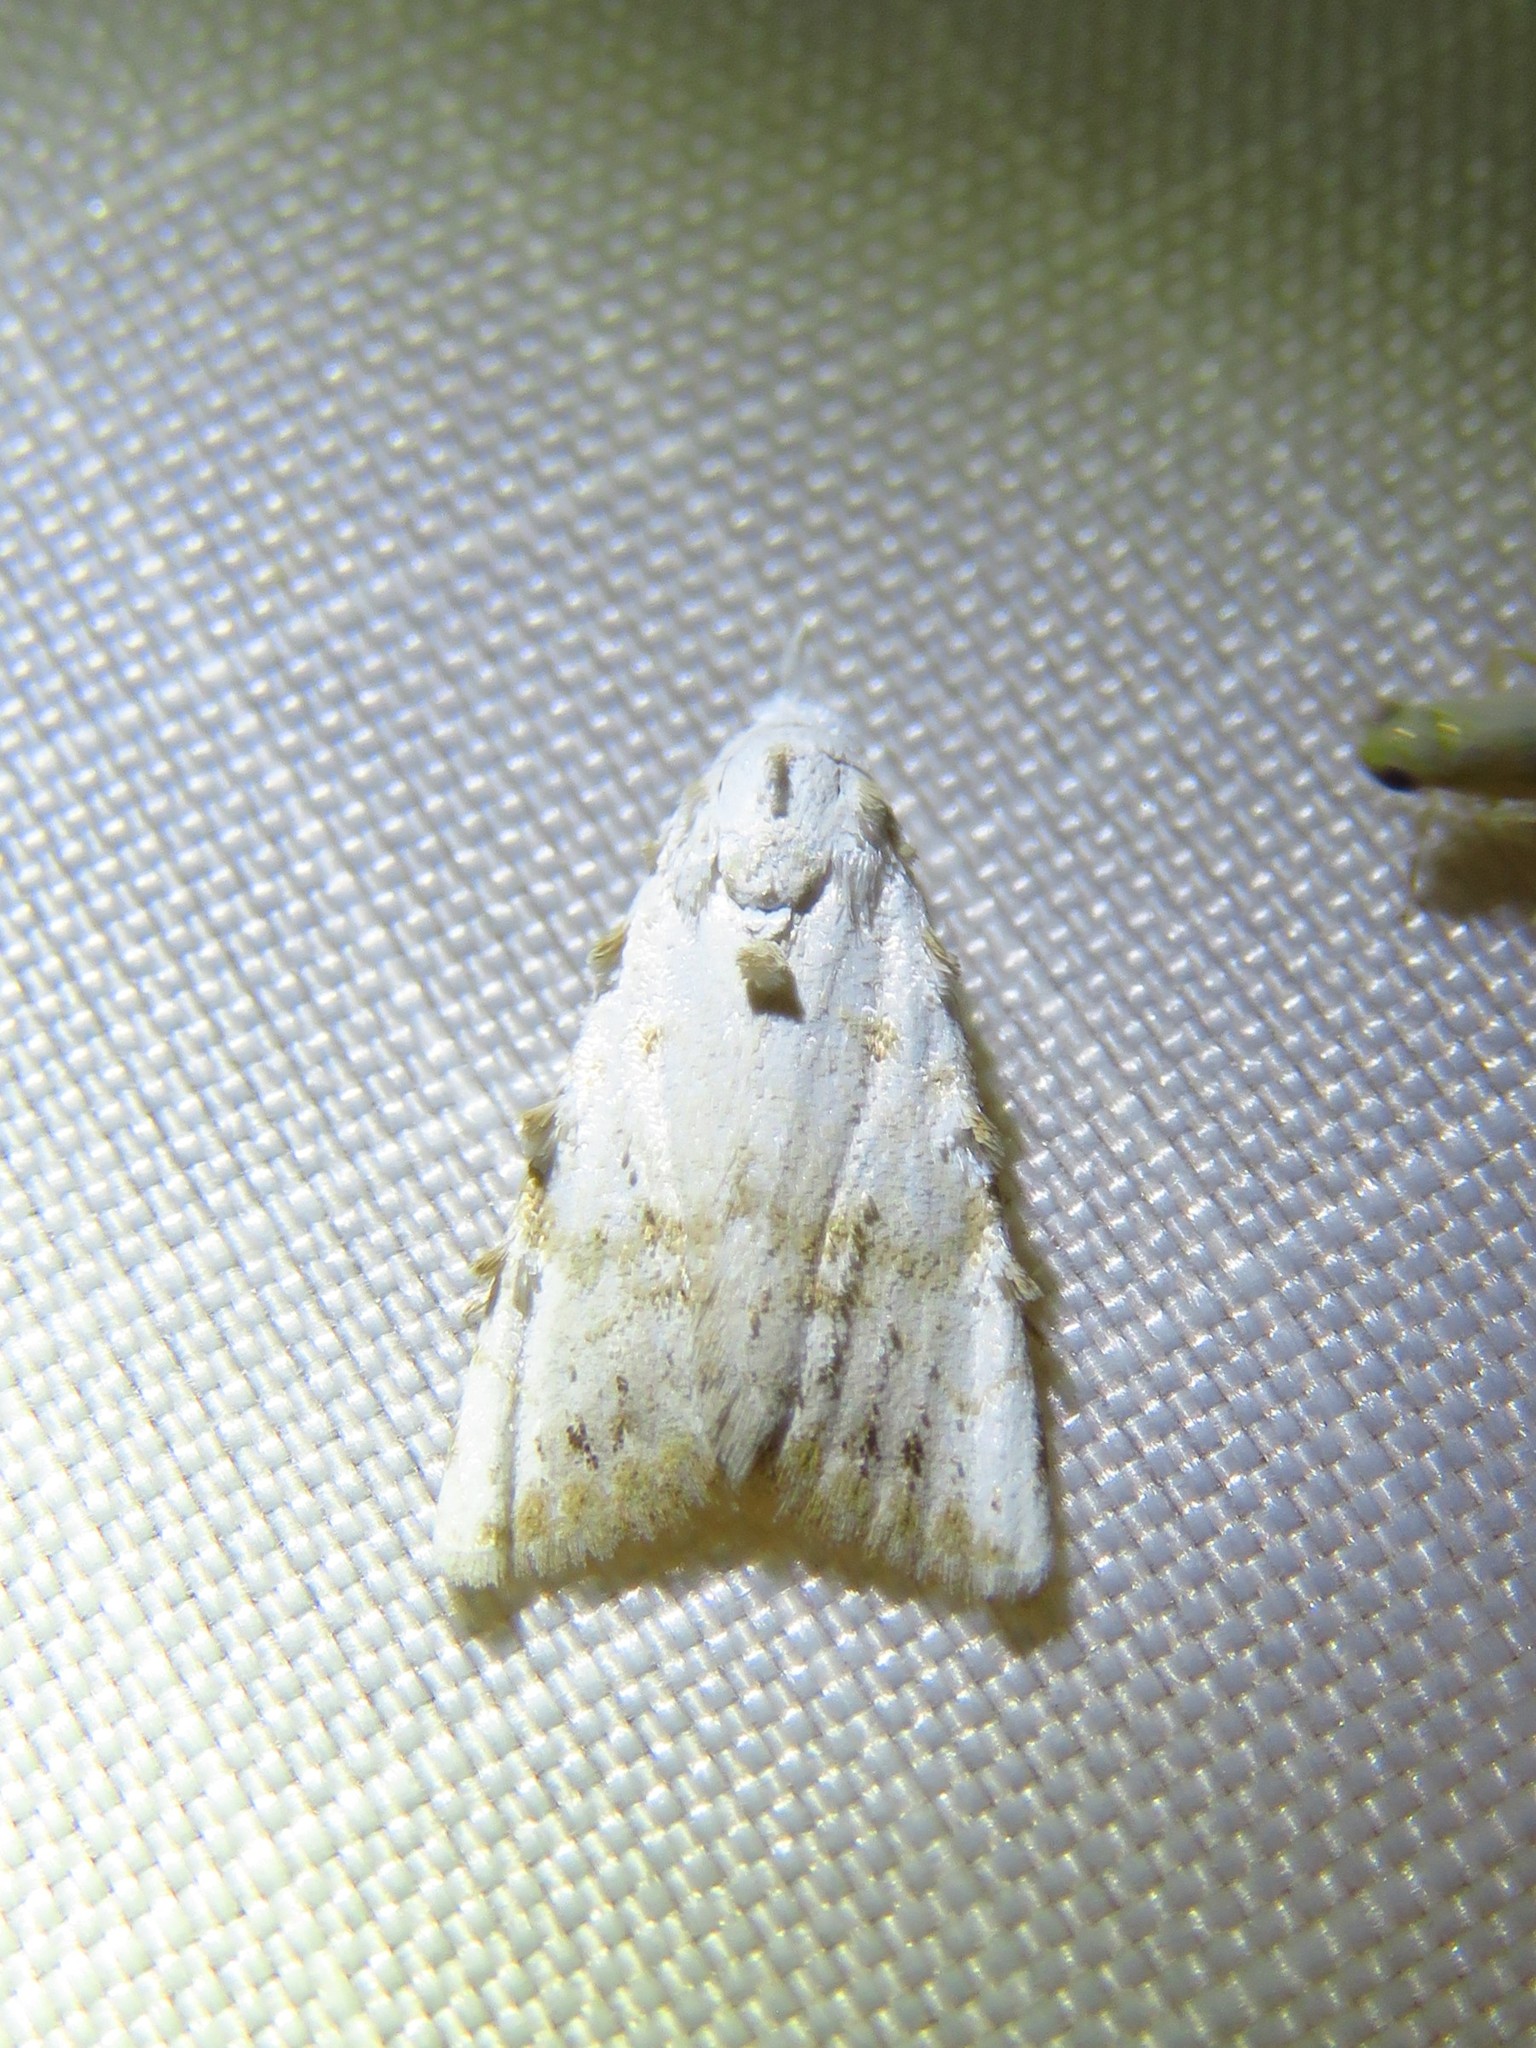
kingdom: Animalia
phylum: Arthropoda
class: Insecta
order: Lepidoptera
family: Nolidae
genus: Nola
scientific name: Nola cereella
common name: Sorghum webworm moth
